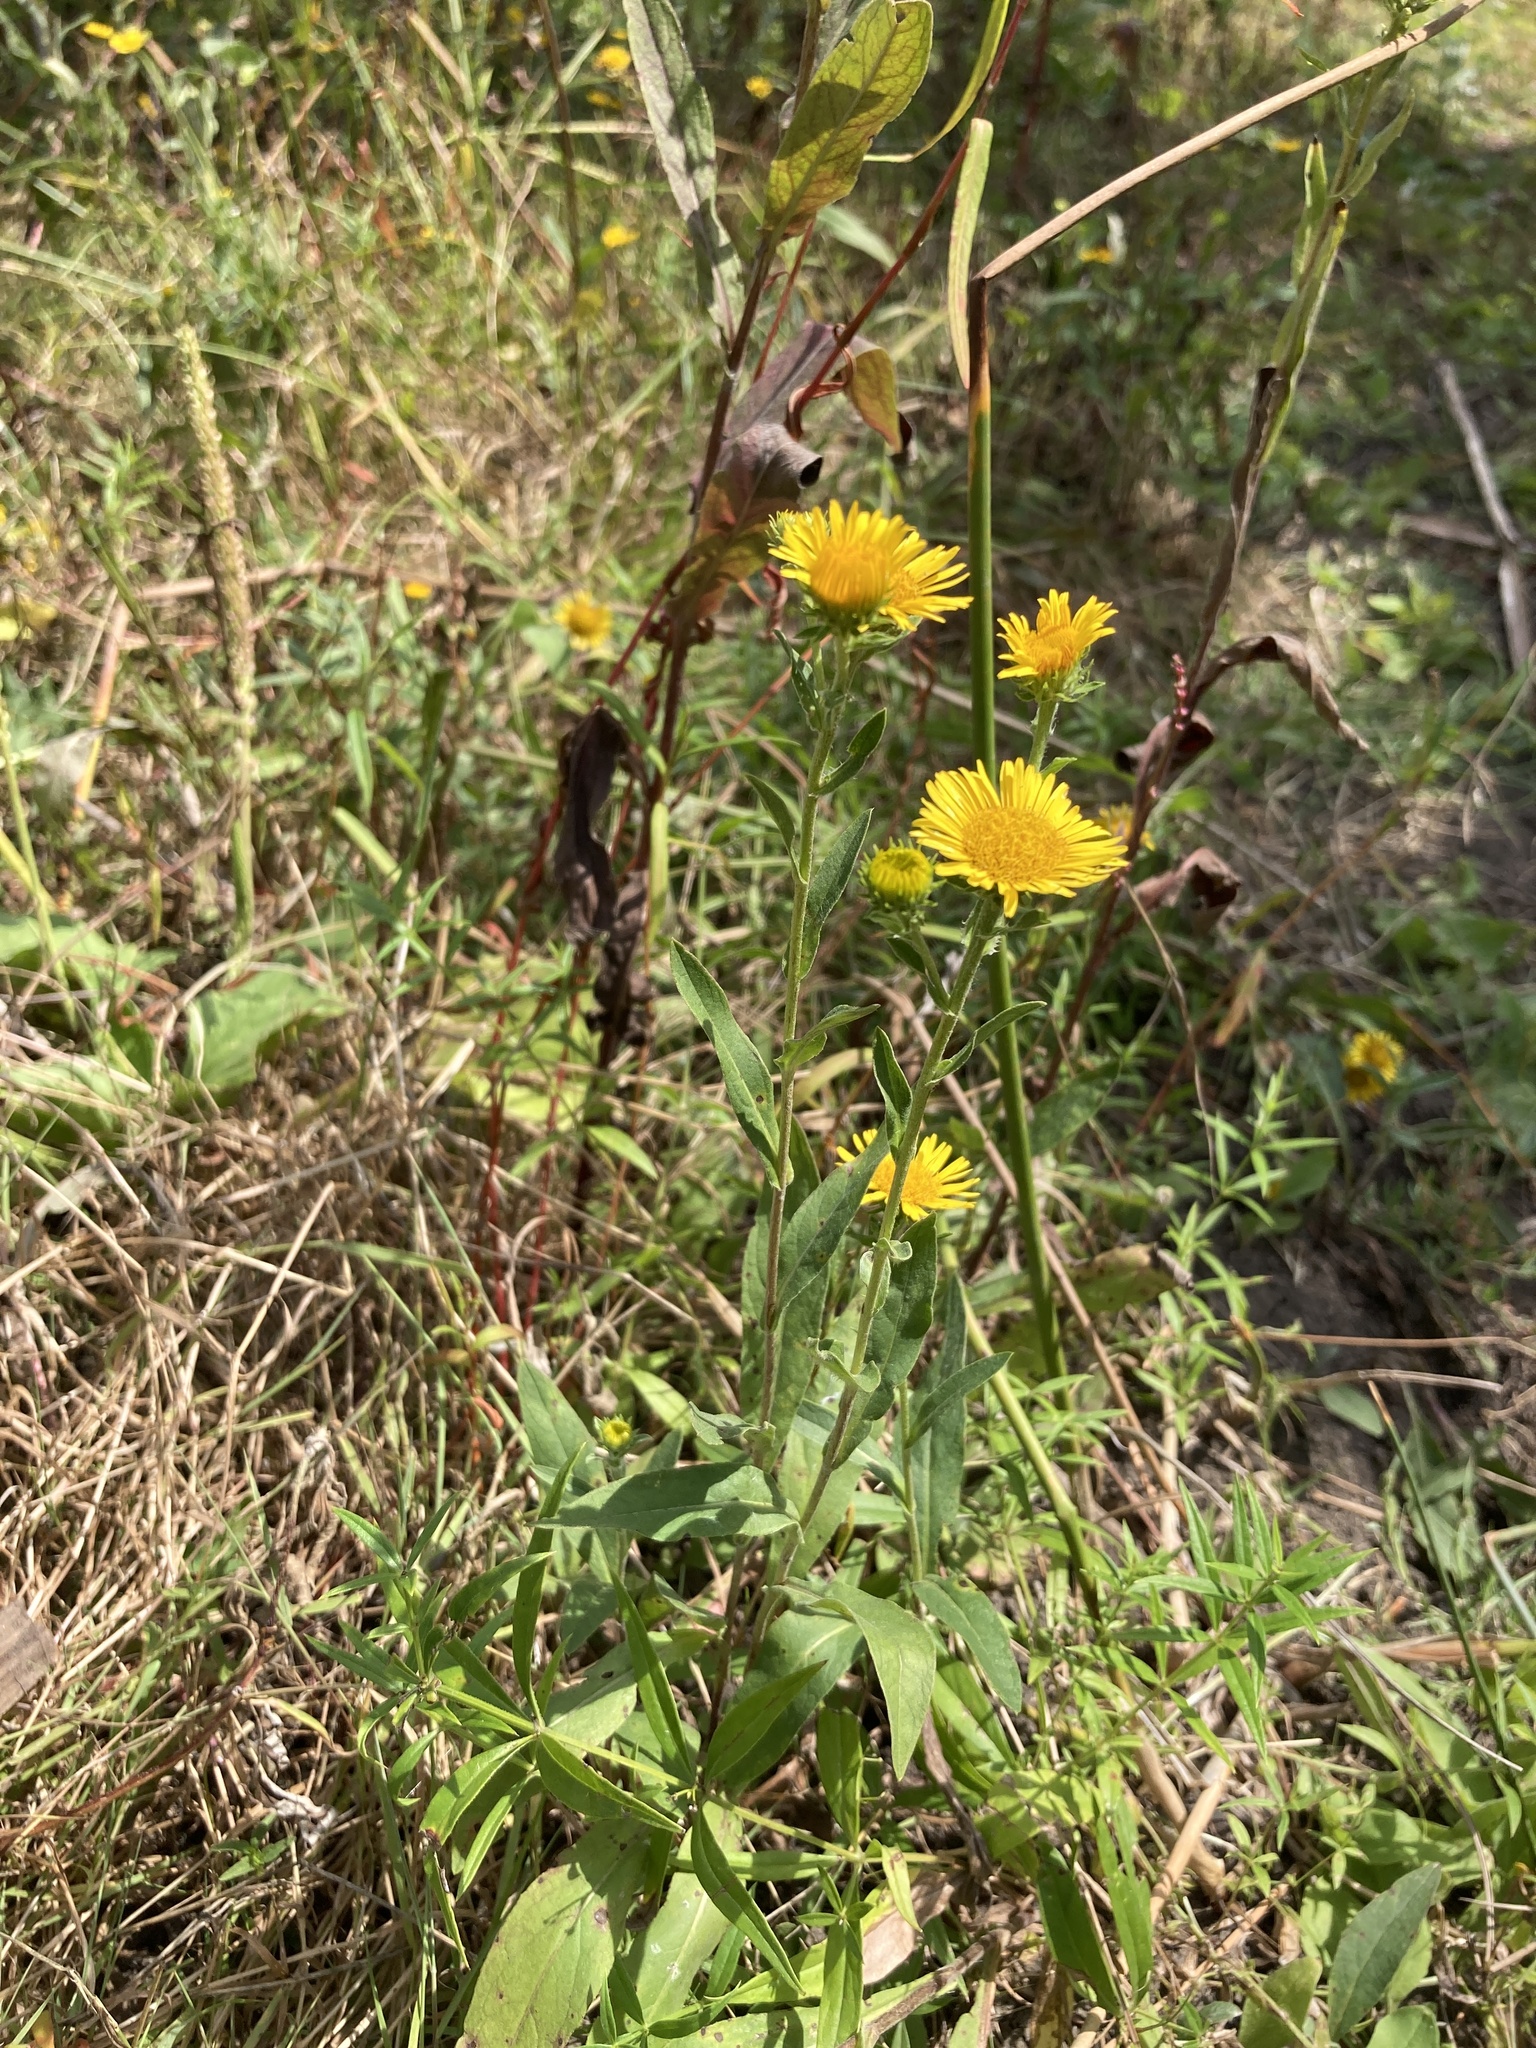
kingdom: Plantae
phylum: Tracheophyta
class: Magnoliopsida
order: Asterales
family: Asteraceae
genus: Pentanema
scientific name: Pentanema britannicum
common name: British elecampane
